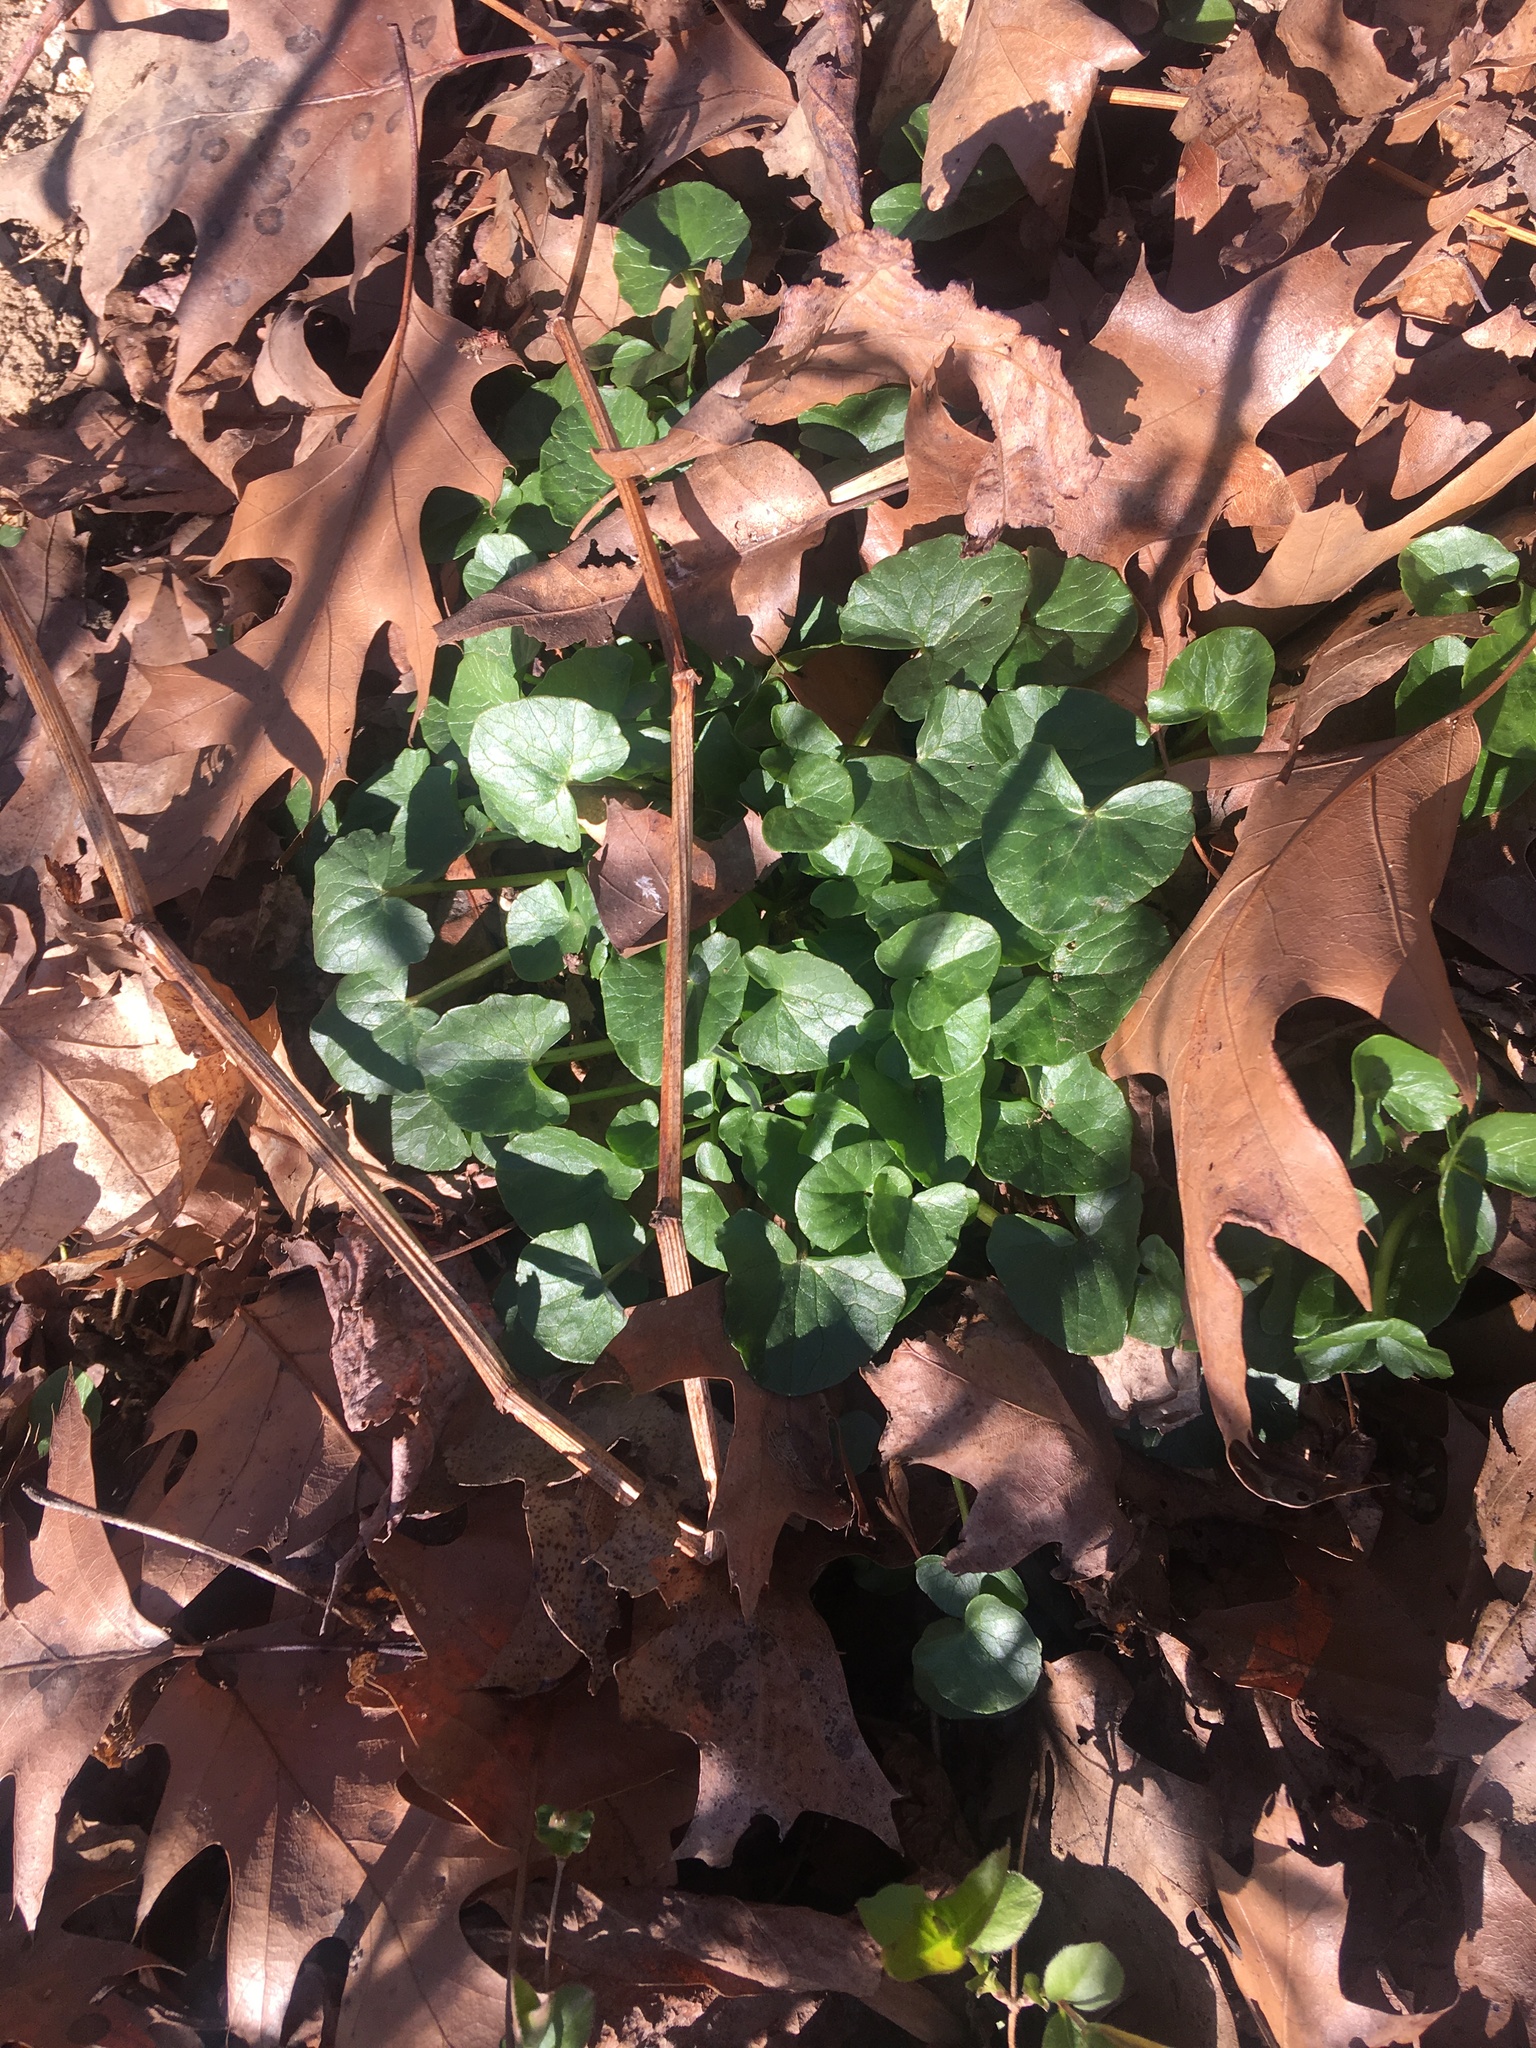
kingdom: Plantae
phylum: Tracheophyta
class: Magnoliopsida
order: Ranunculales
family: Ranunculaceae
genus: Ficaria
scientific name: Ficaria verna
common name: Lesser celandine
